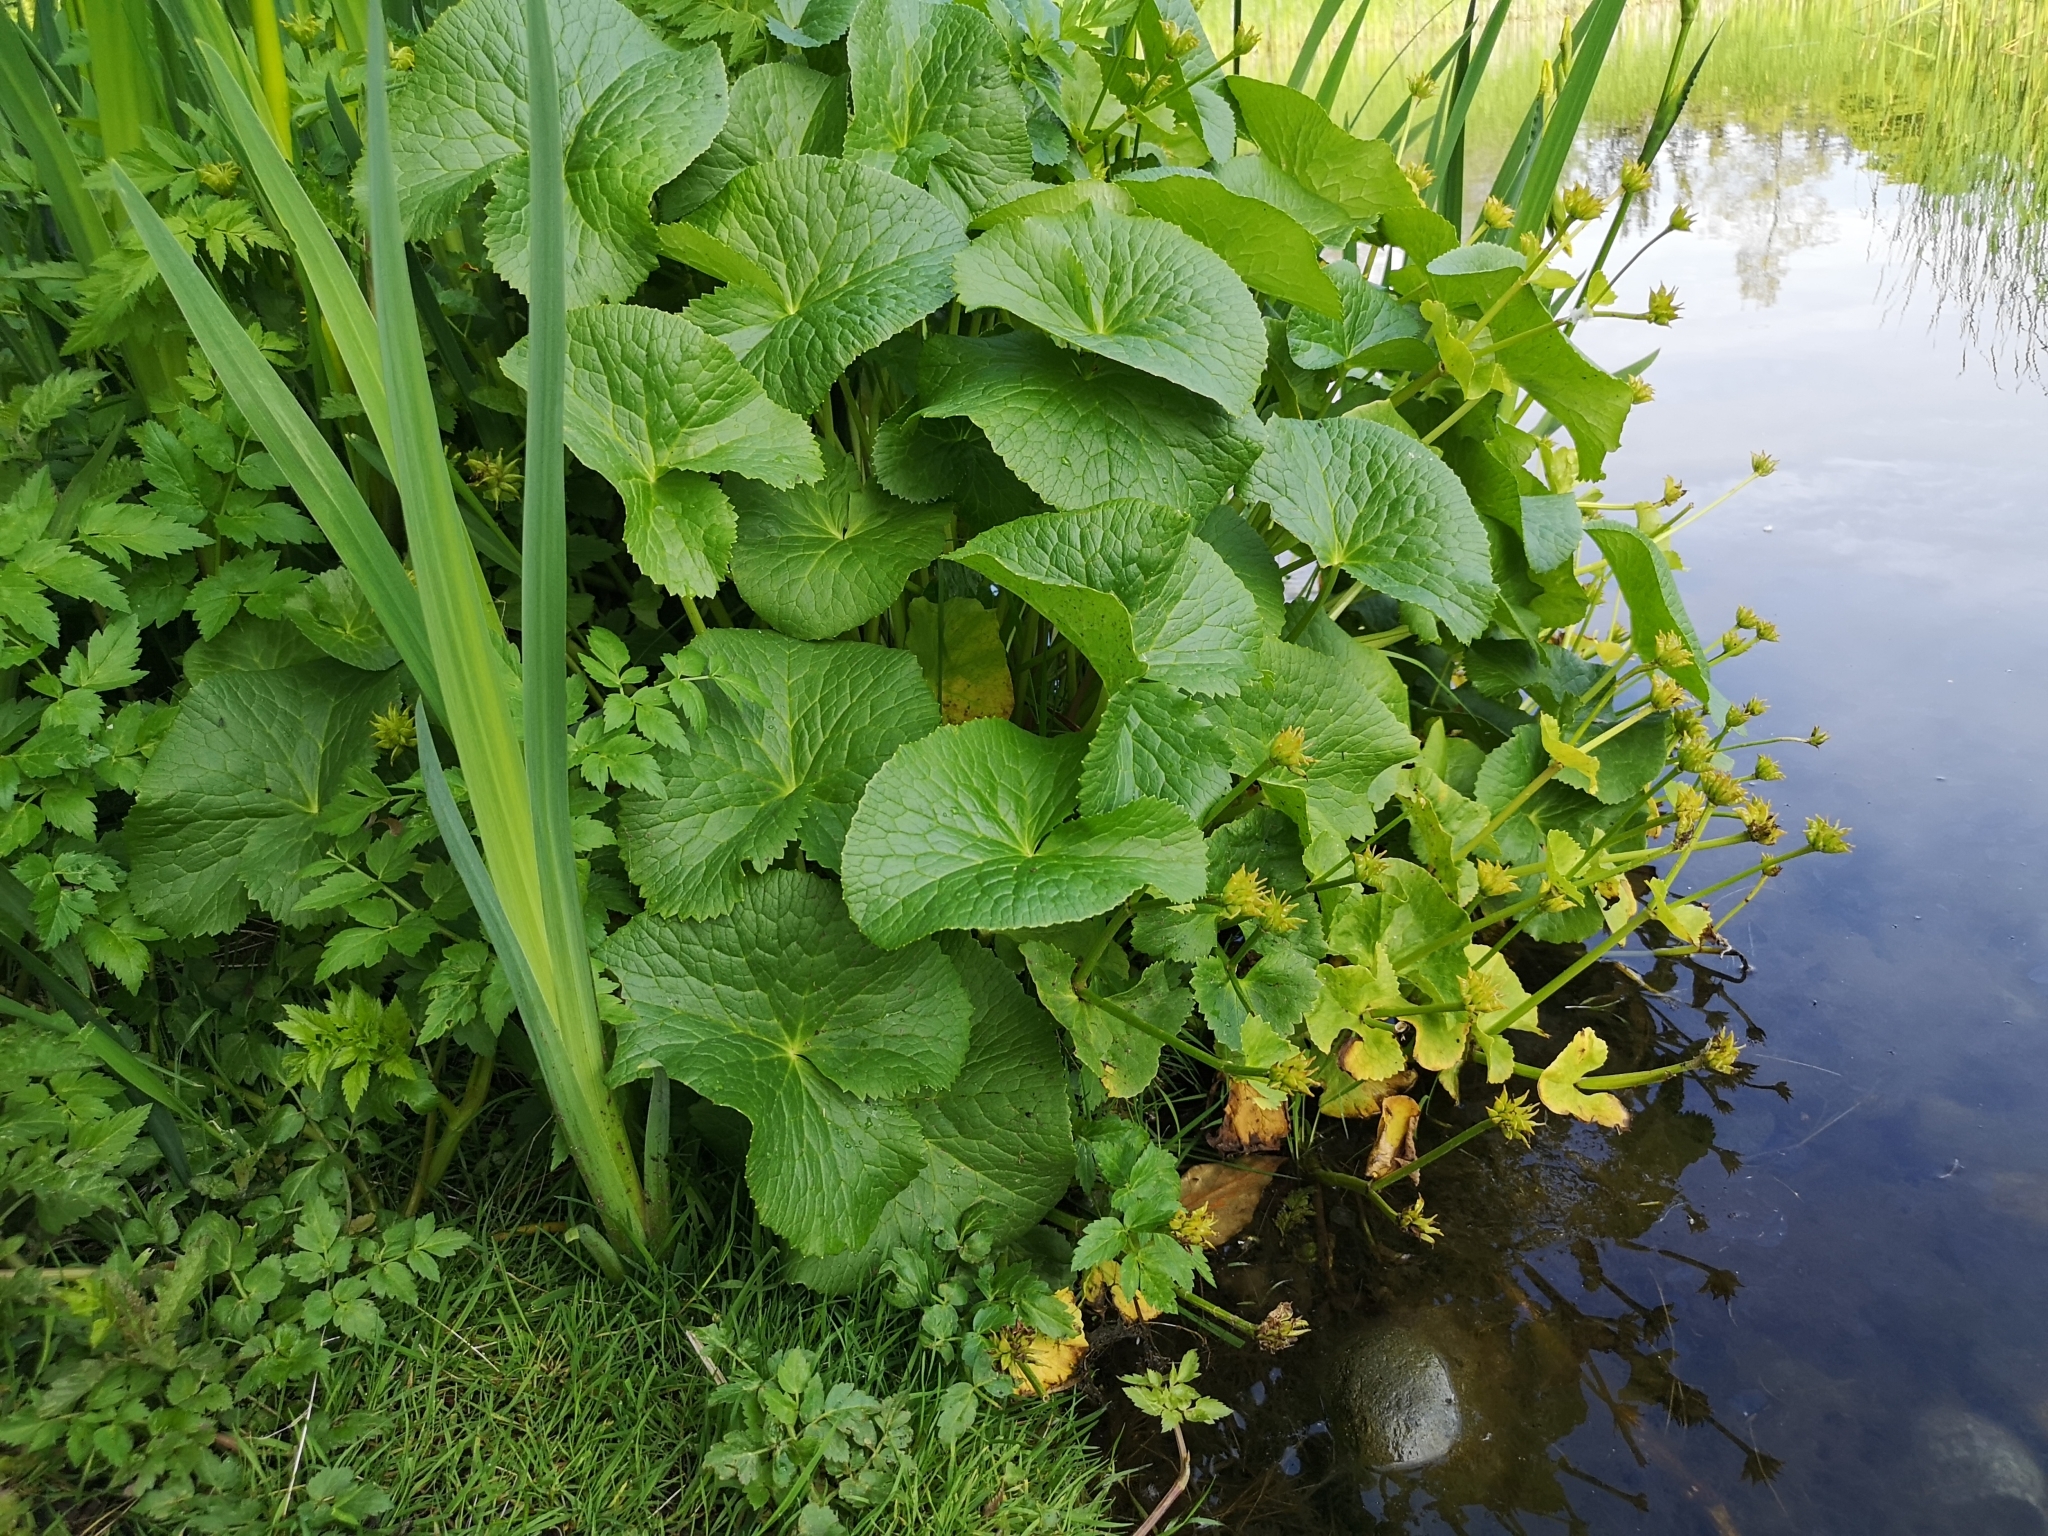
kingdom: Plantae
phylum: Tracheophyta
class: Magnoliopsida
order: Ranunculales
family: Ranunculaceae
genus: Caltha
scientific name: Caltha palustris
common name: Marsh marigold
